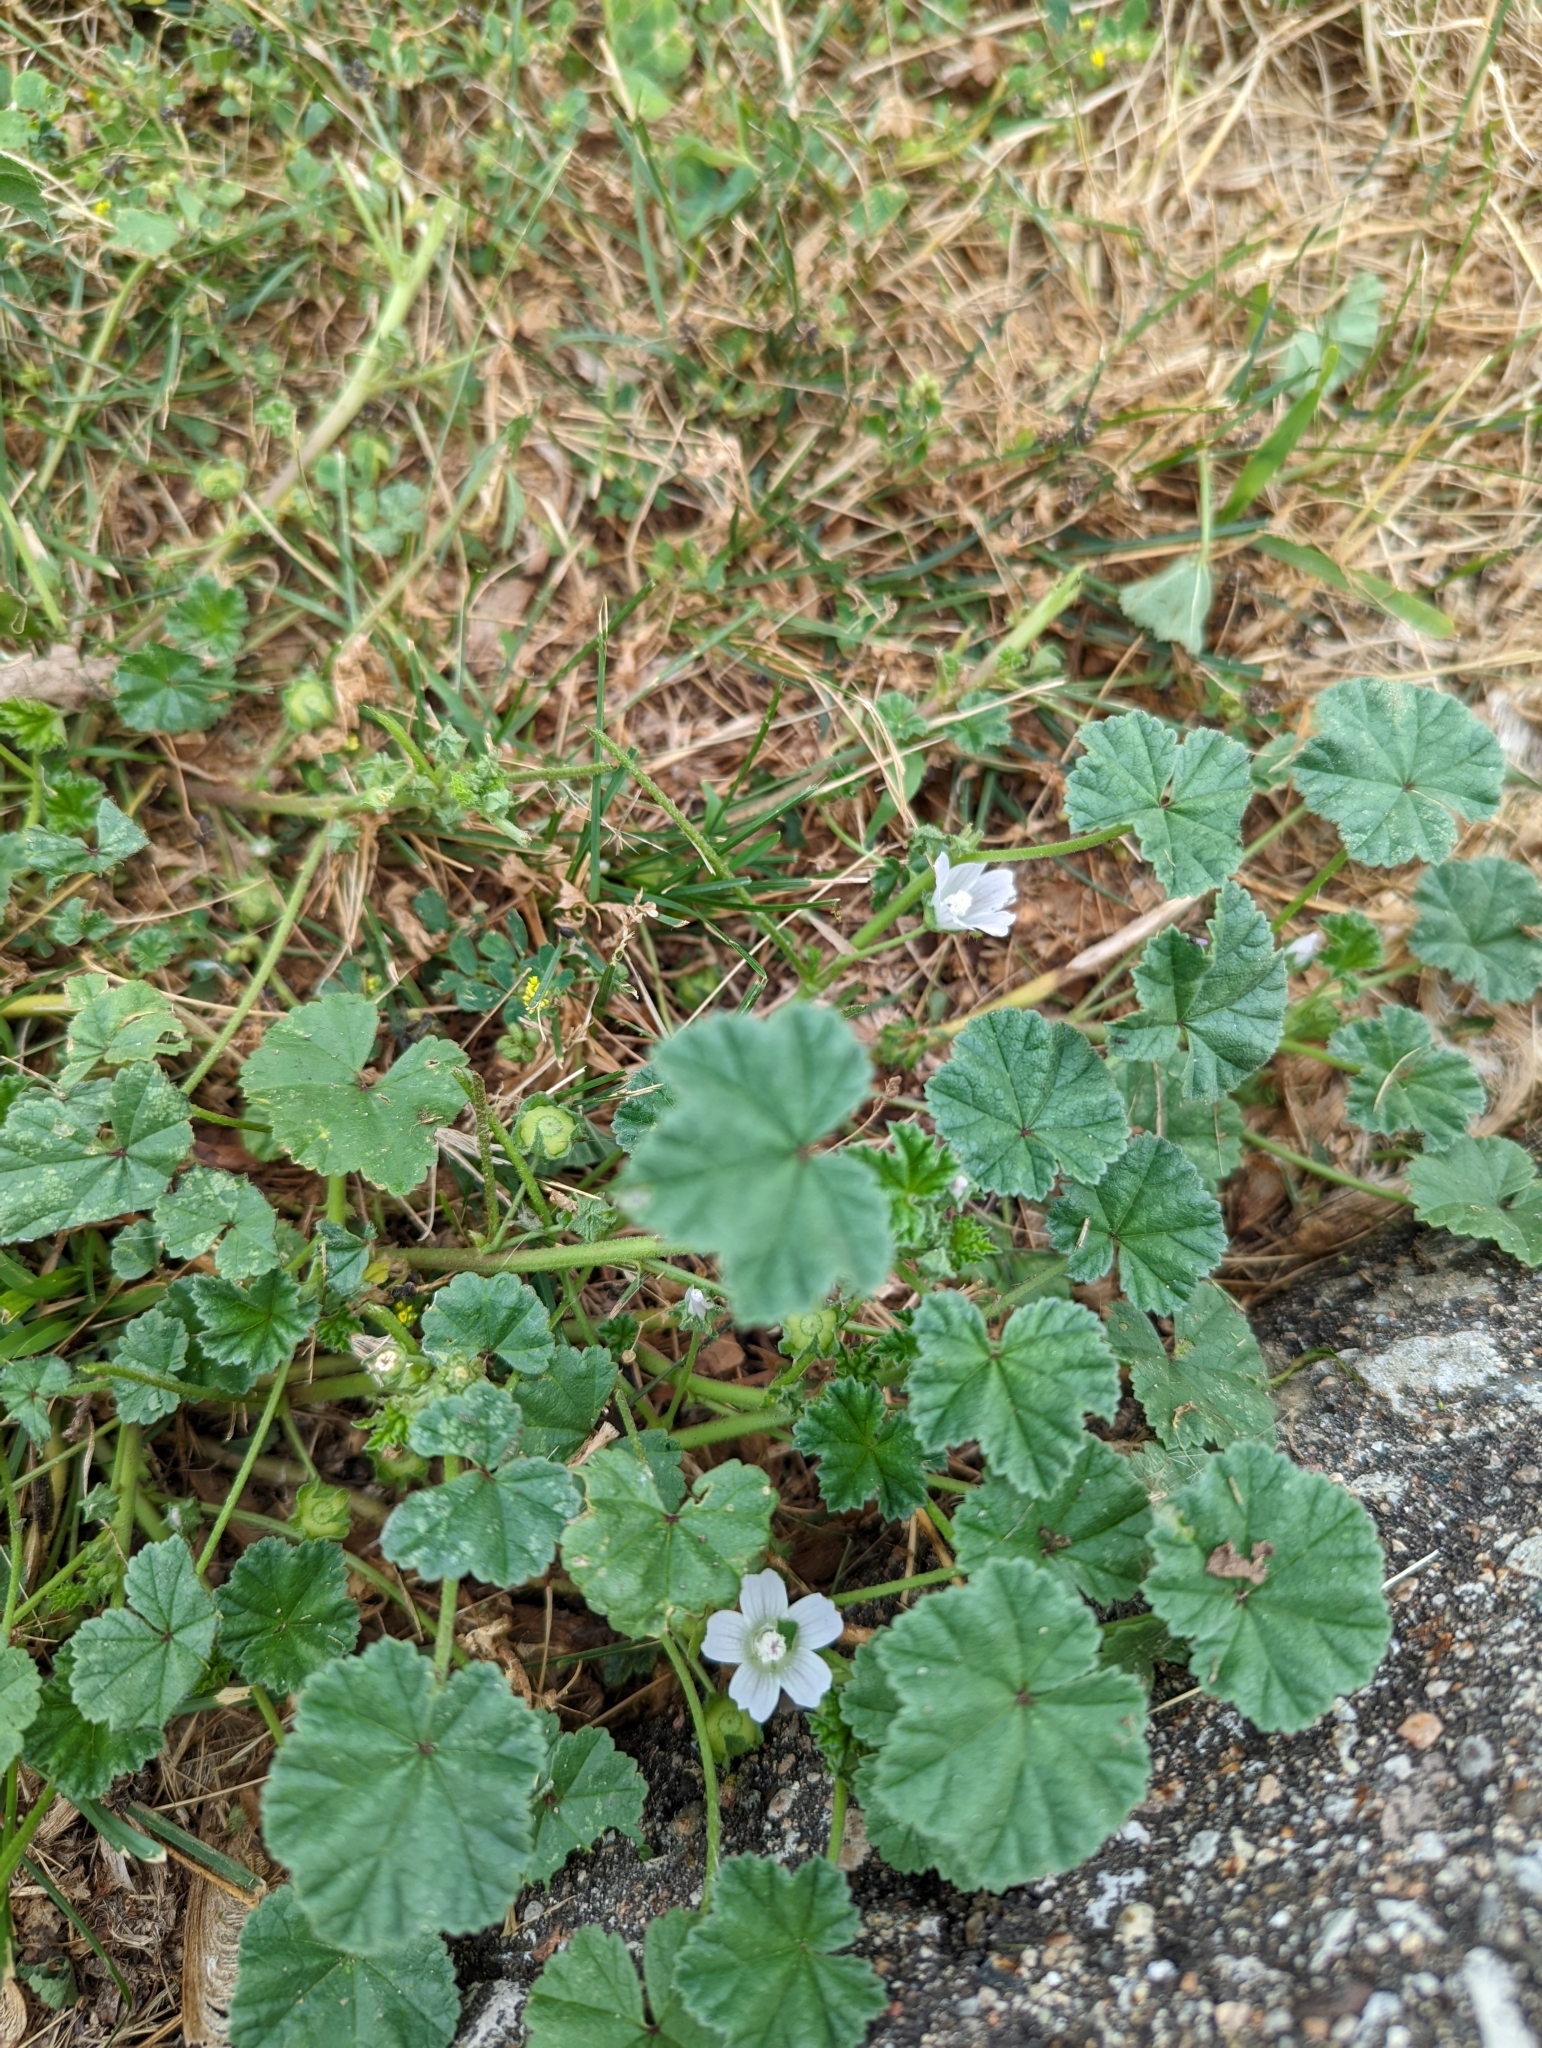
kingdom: Plantae
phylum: Tracheophyta
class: Magnoliopsida
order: Malvales
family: Malvaceae
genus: Malva
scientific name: Malva neglecta
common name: Common mallow
